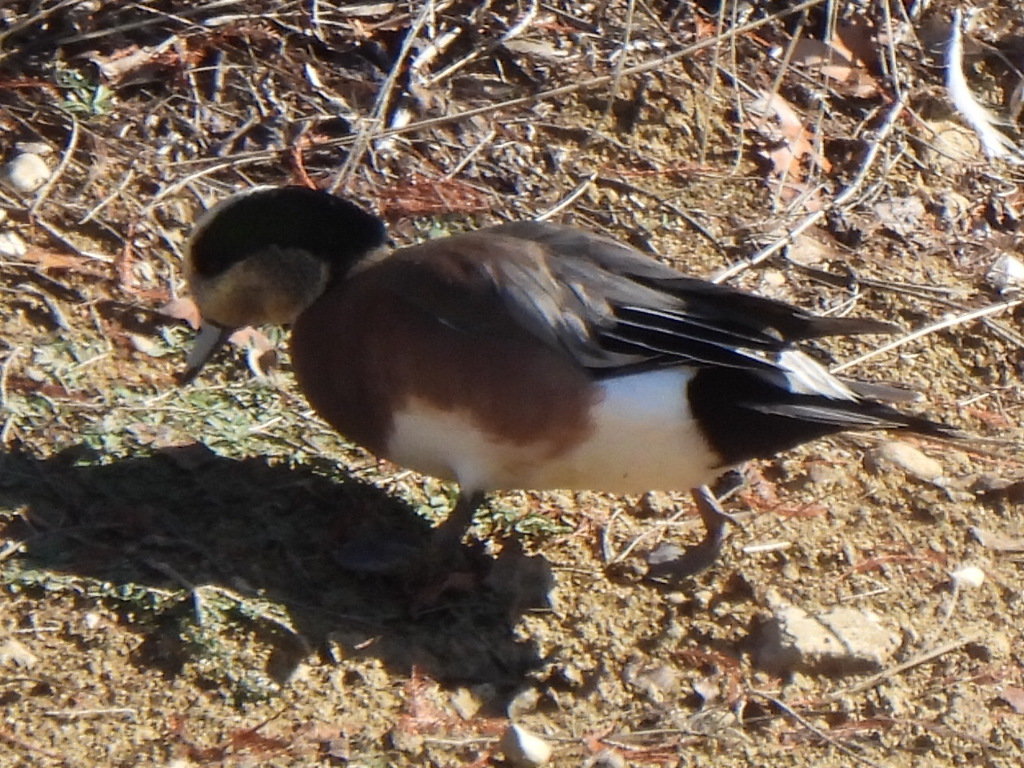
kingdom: Animalia
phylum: Chordata
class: Aves
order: Anseriformes
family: Anatidae
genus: Mareca
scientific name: Mareca americana
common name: American wigeon
